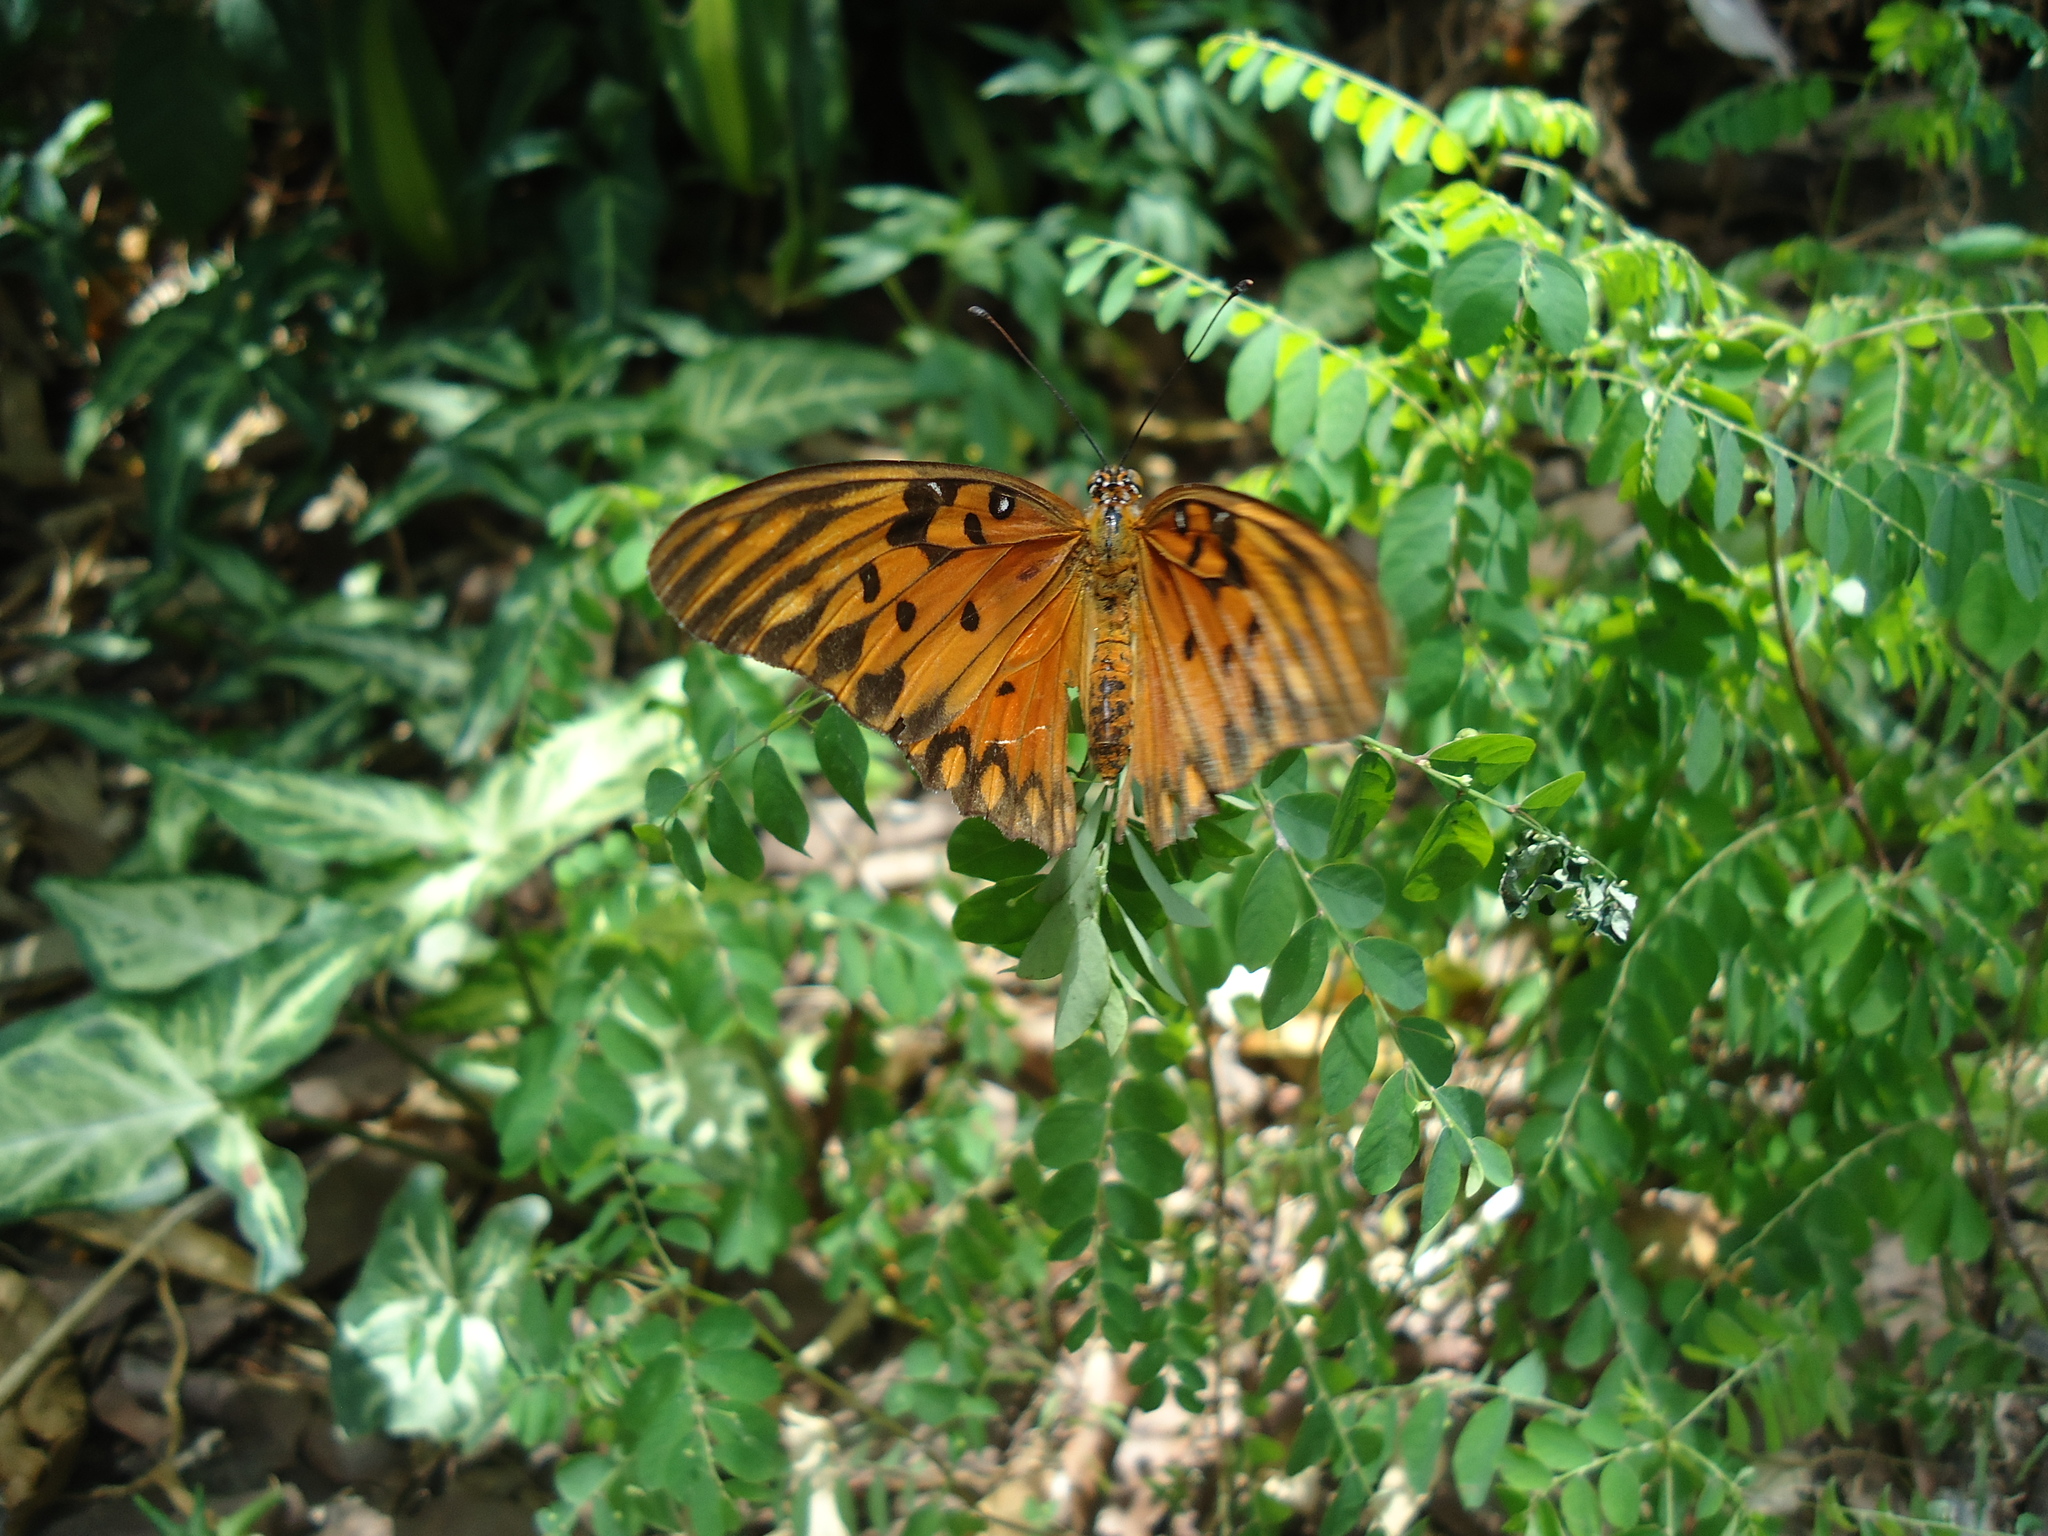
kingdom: Animalia
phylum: Arthropoda
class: Insecta
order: Lepidoptera
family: Nymphalidae
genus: Dione
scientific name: Dione vanillae
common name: Gulf fritillary
